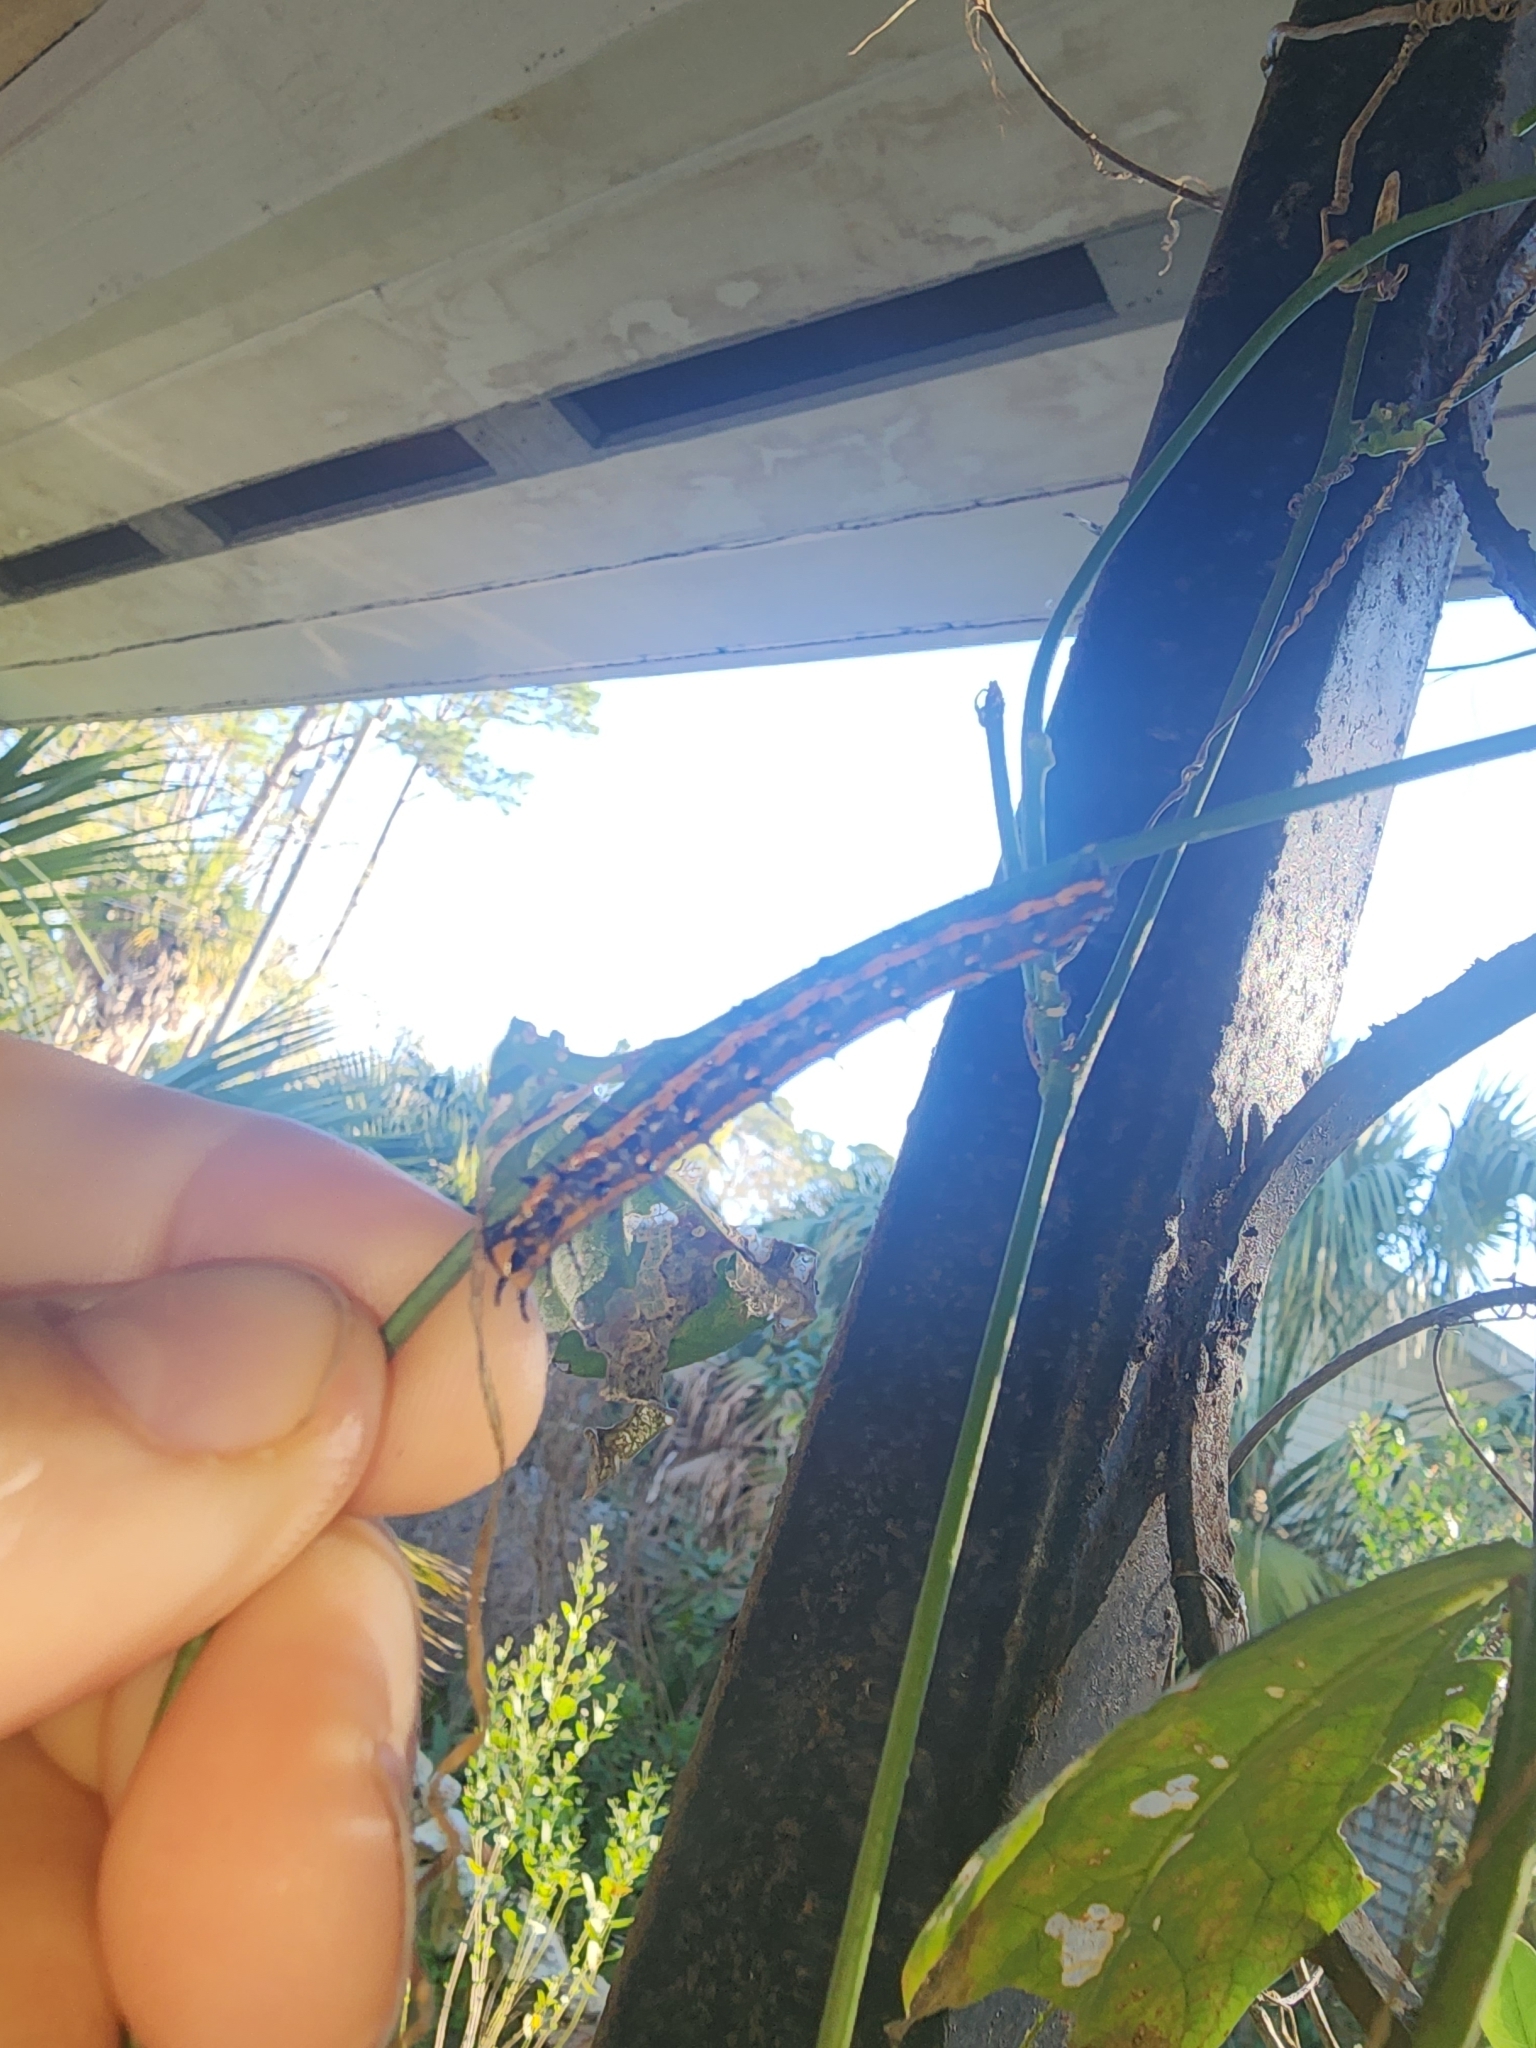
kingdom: Animalia
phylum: Arthropoda
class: Insecta
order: Lepidoptera
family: Nymphalidae
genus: Dione
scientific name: Dione vanillae
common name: Gulf fritillary
